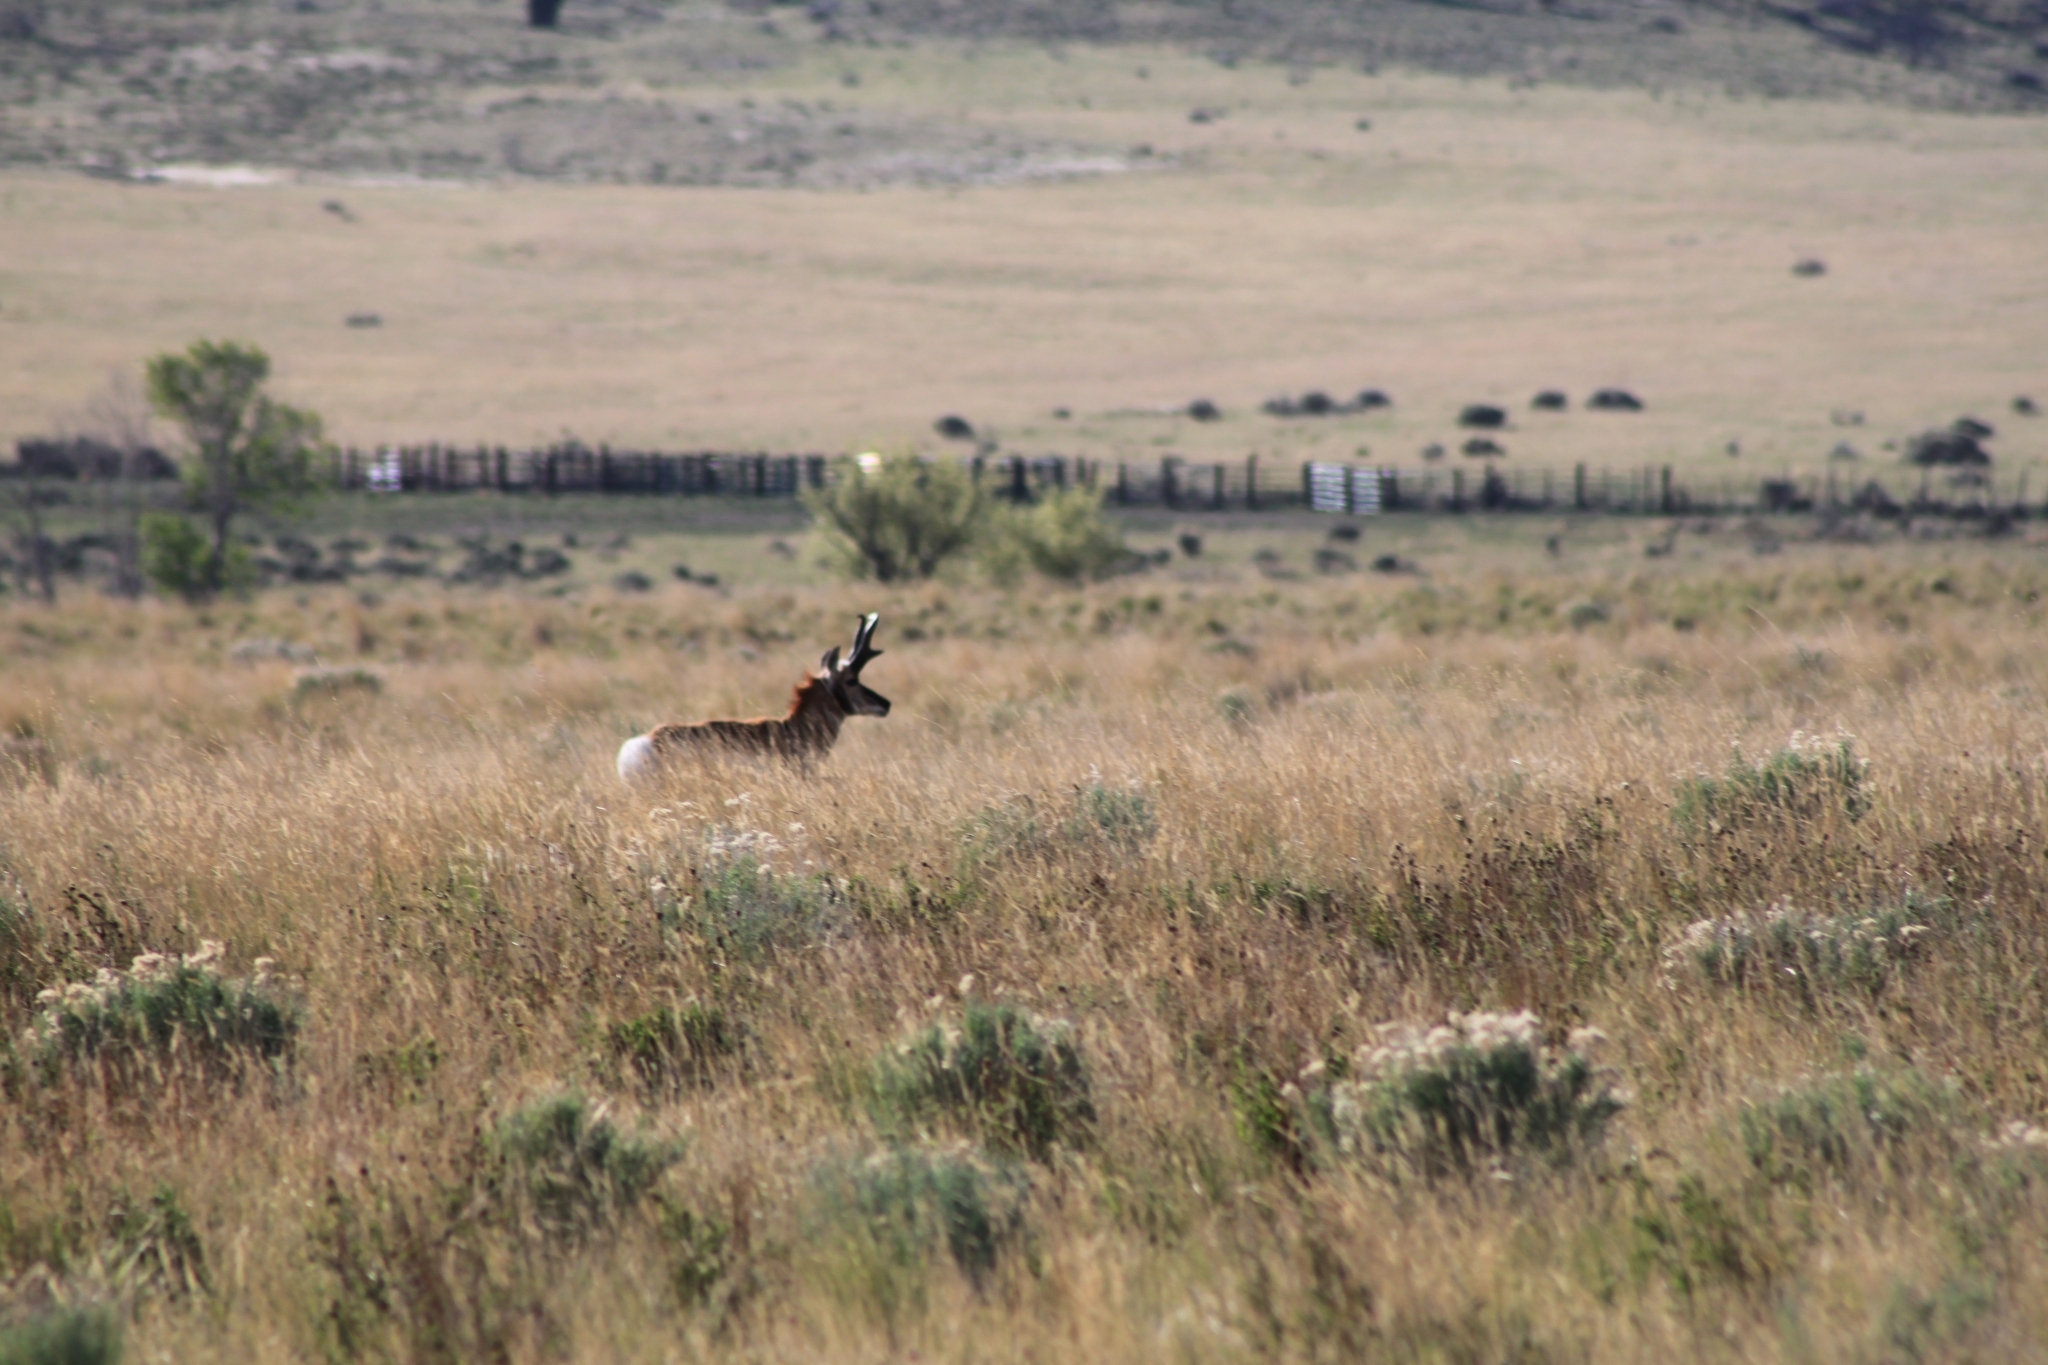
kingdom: Animalia
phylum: Chordata
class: Mammalia
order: Artiodactyla
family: Antilocapridae
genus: Antilocapra
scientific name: Antilocapra americana
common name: Pronghorn
